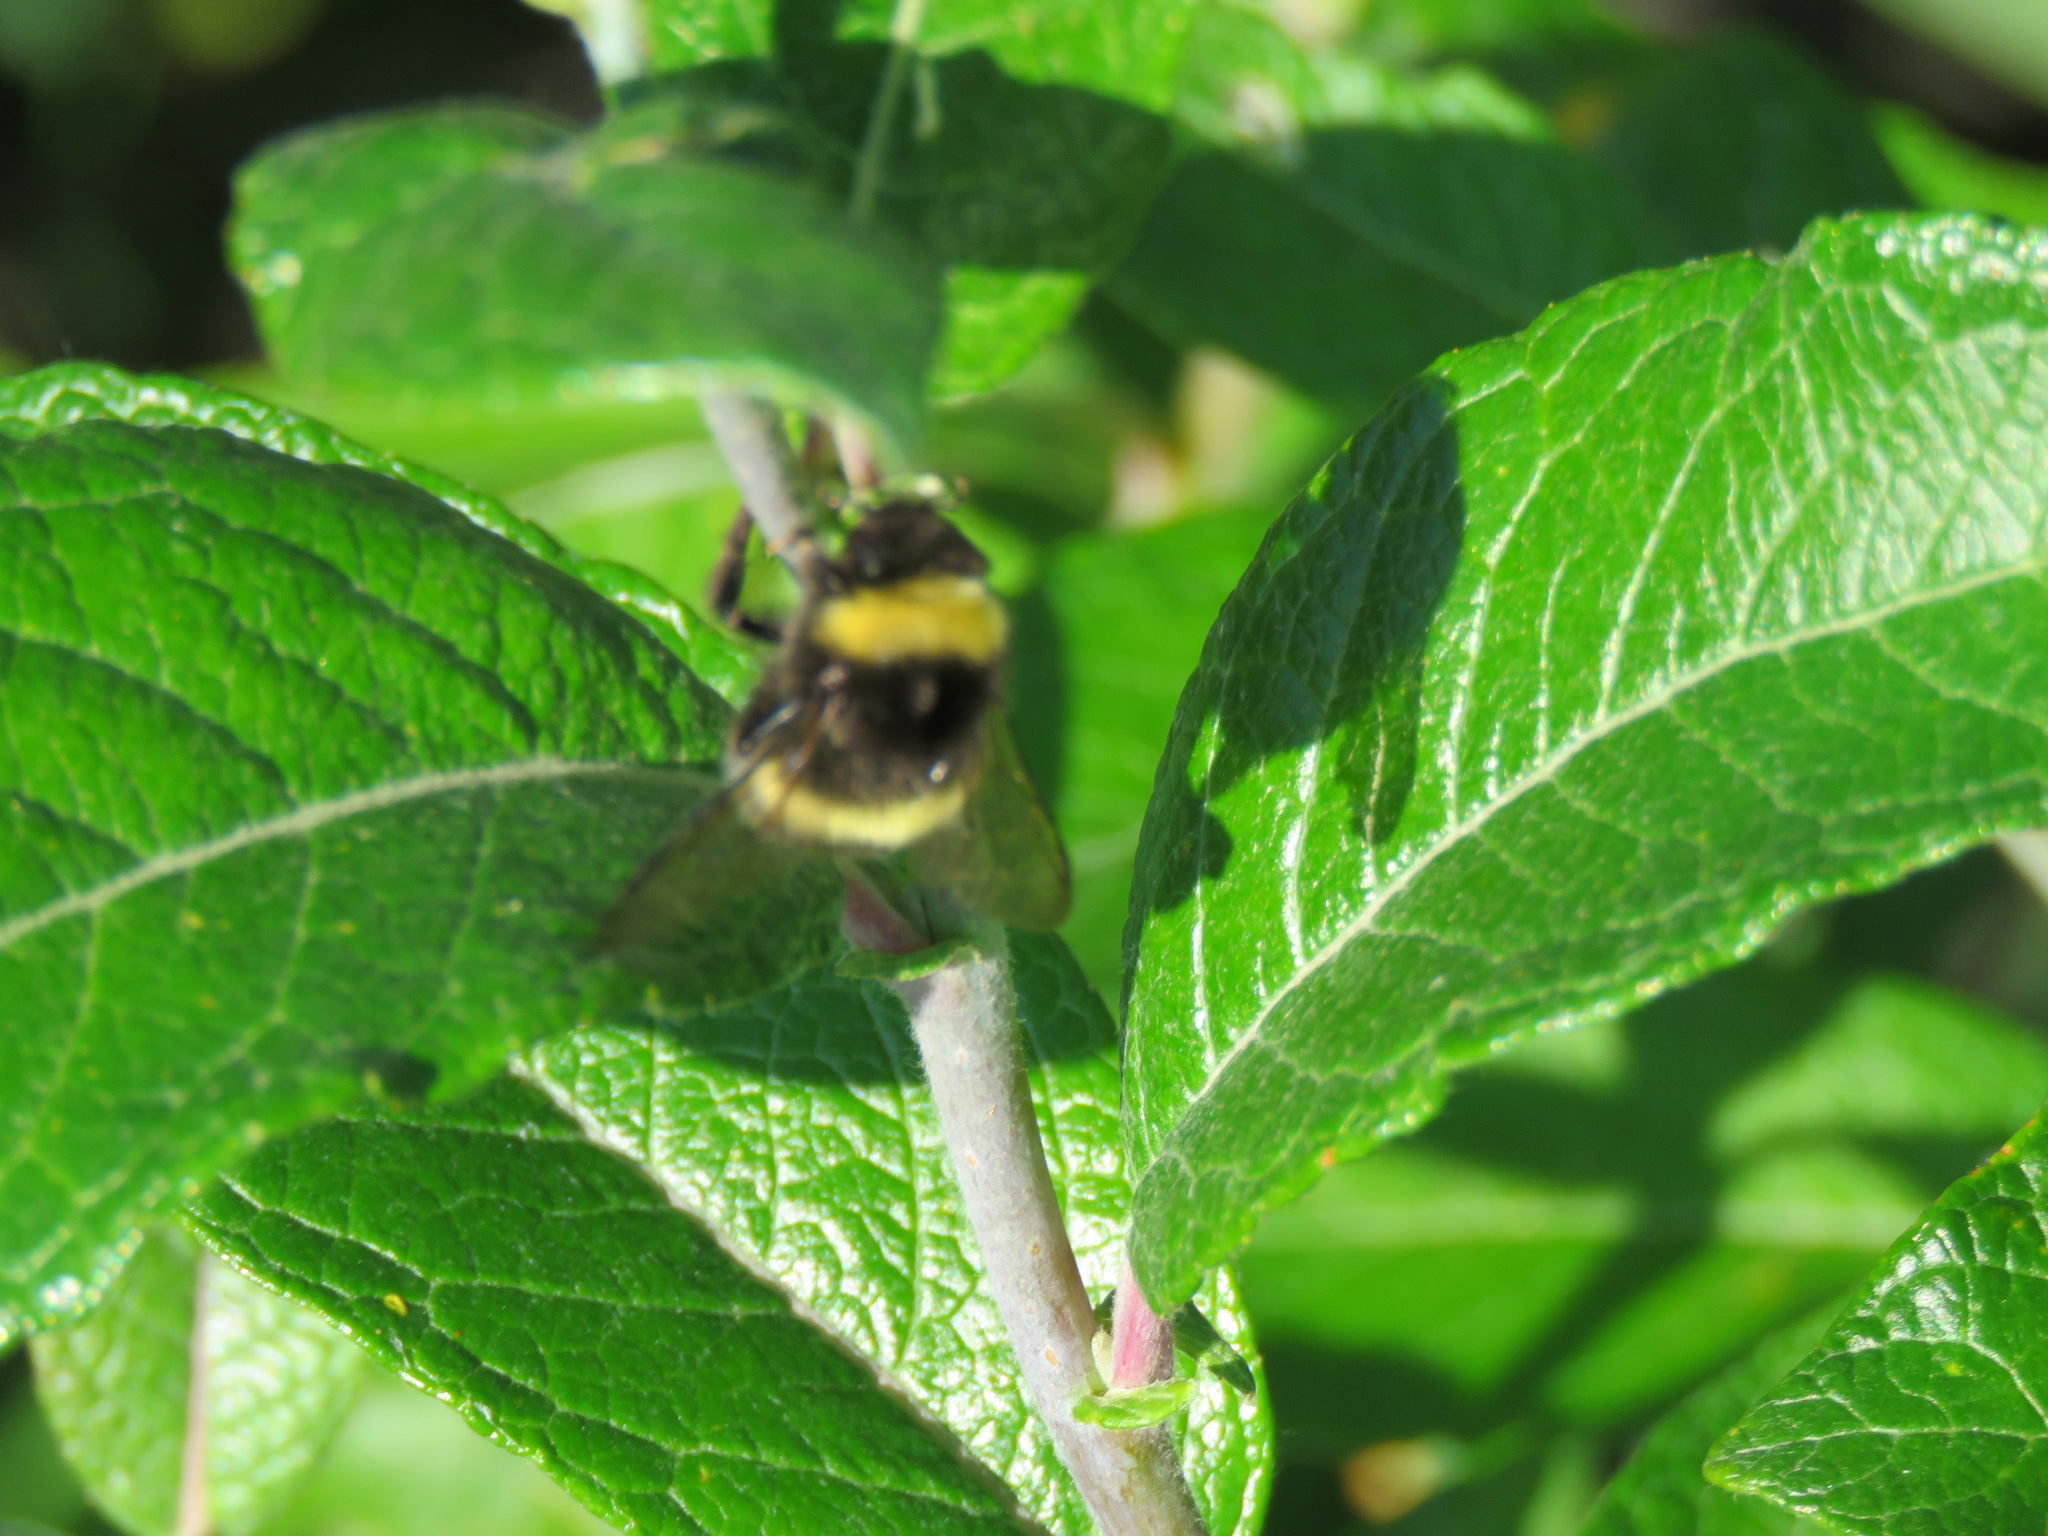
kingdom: Animalia
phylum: Arthropoda
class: Insecta
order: Hymenoptera
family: Apidae
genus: Bombus
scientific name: Bombus cryptarum
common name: Cryptic bumblebee
